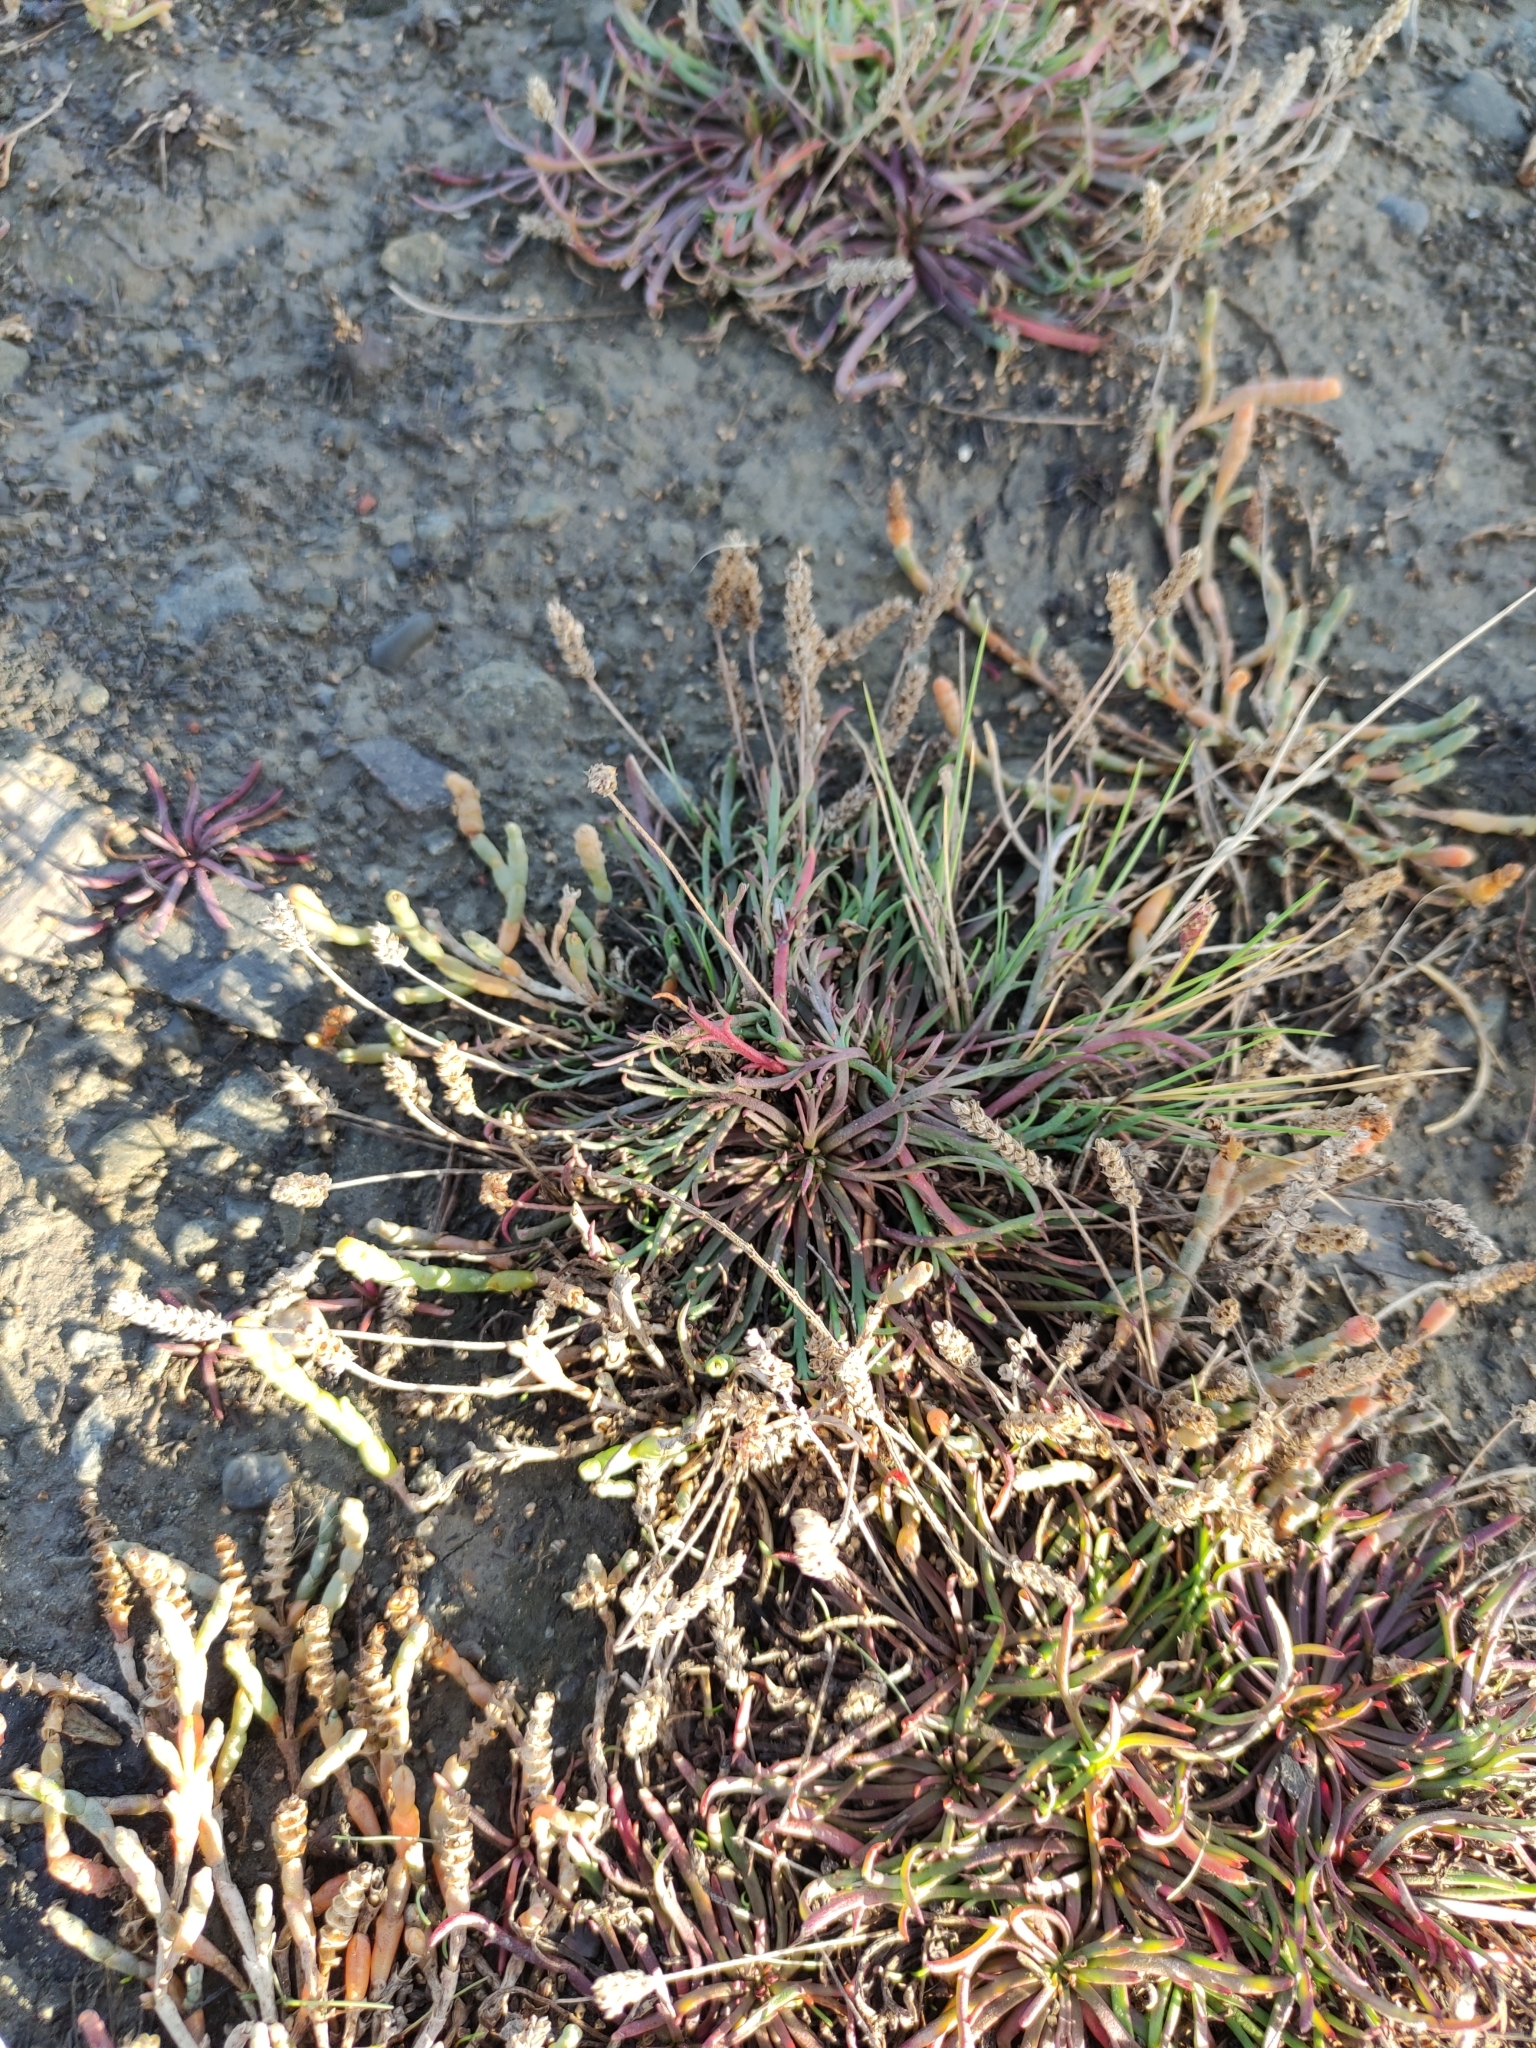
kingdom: Plantae
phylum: Tracheophyta
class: Magnoliopsida
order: Lamiales
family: Plantaginaceae
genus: Plantago
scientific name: Plantago coronopus
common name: Buck's-horn plantain
